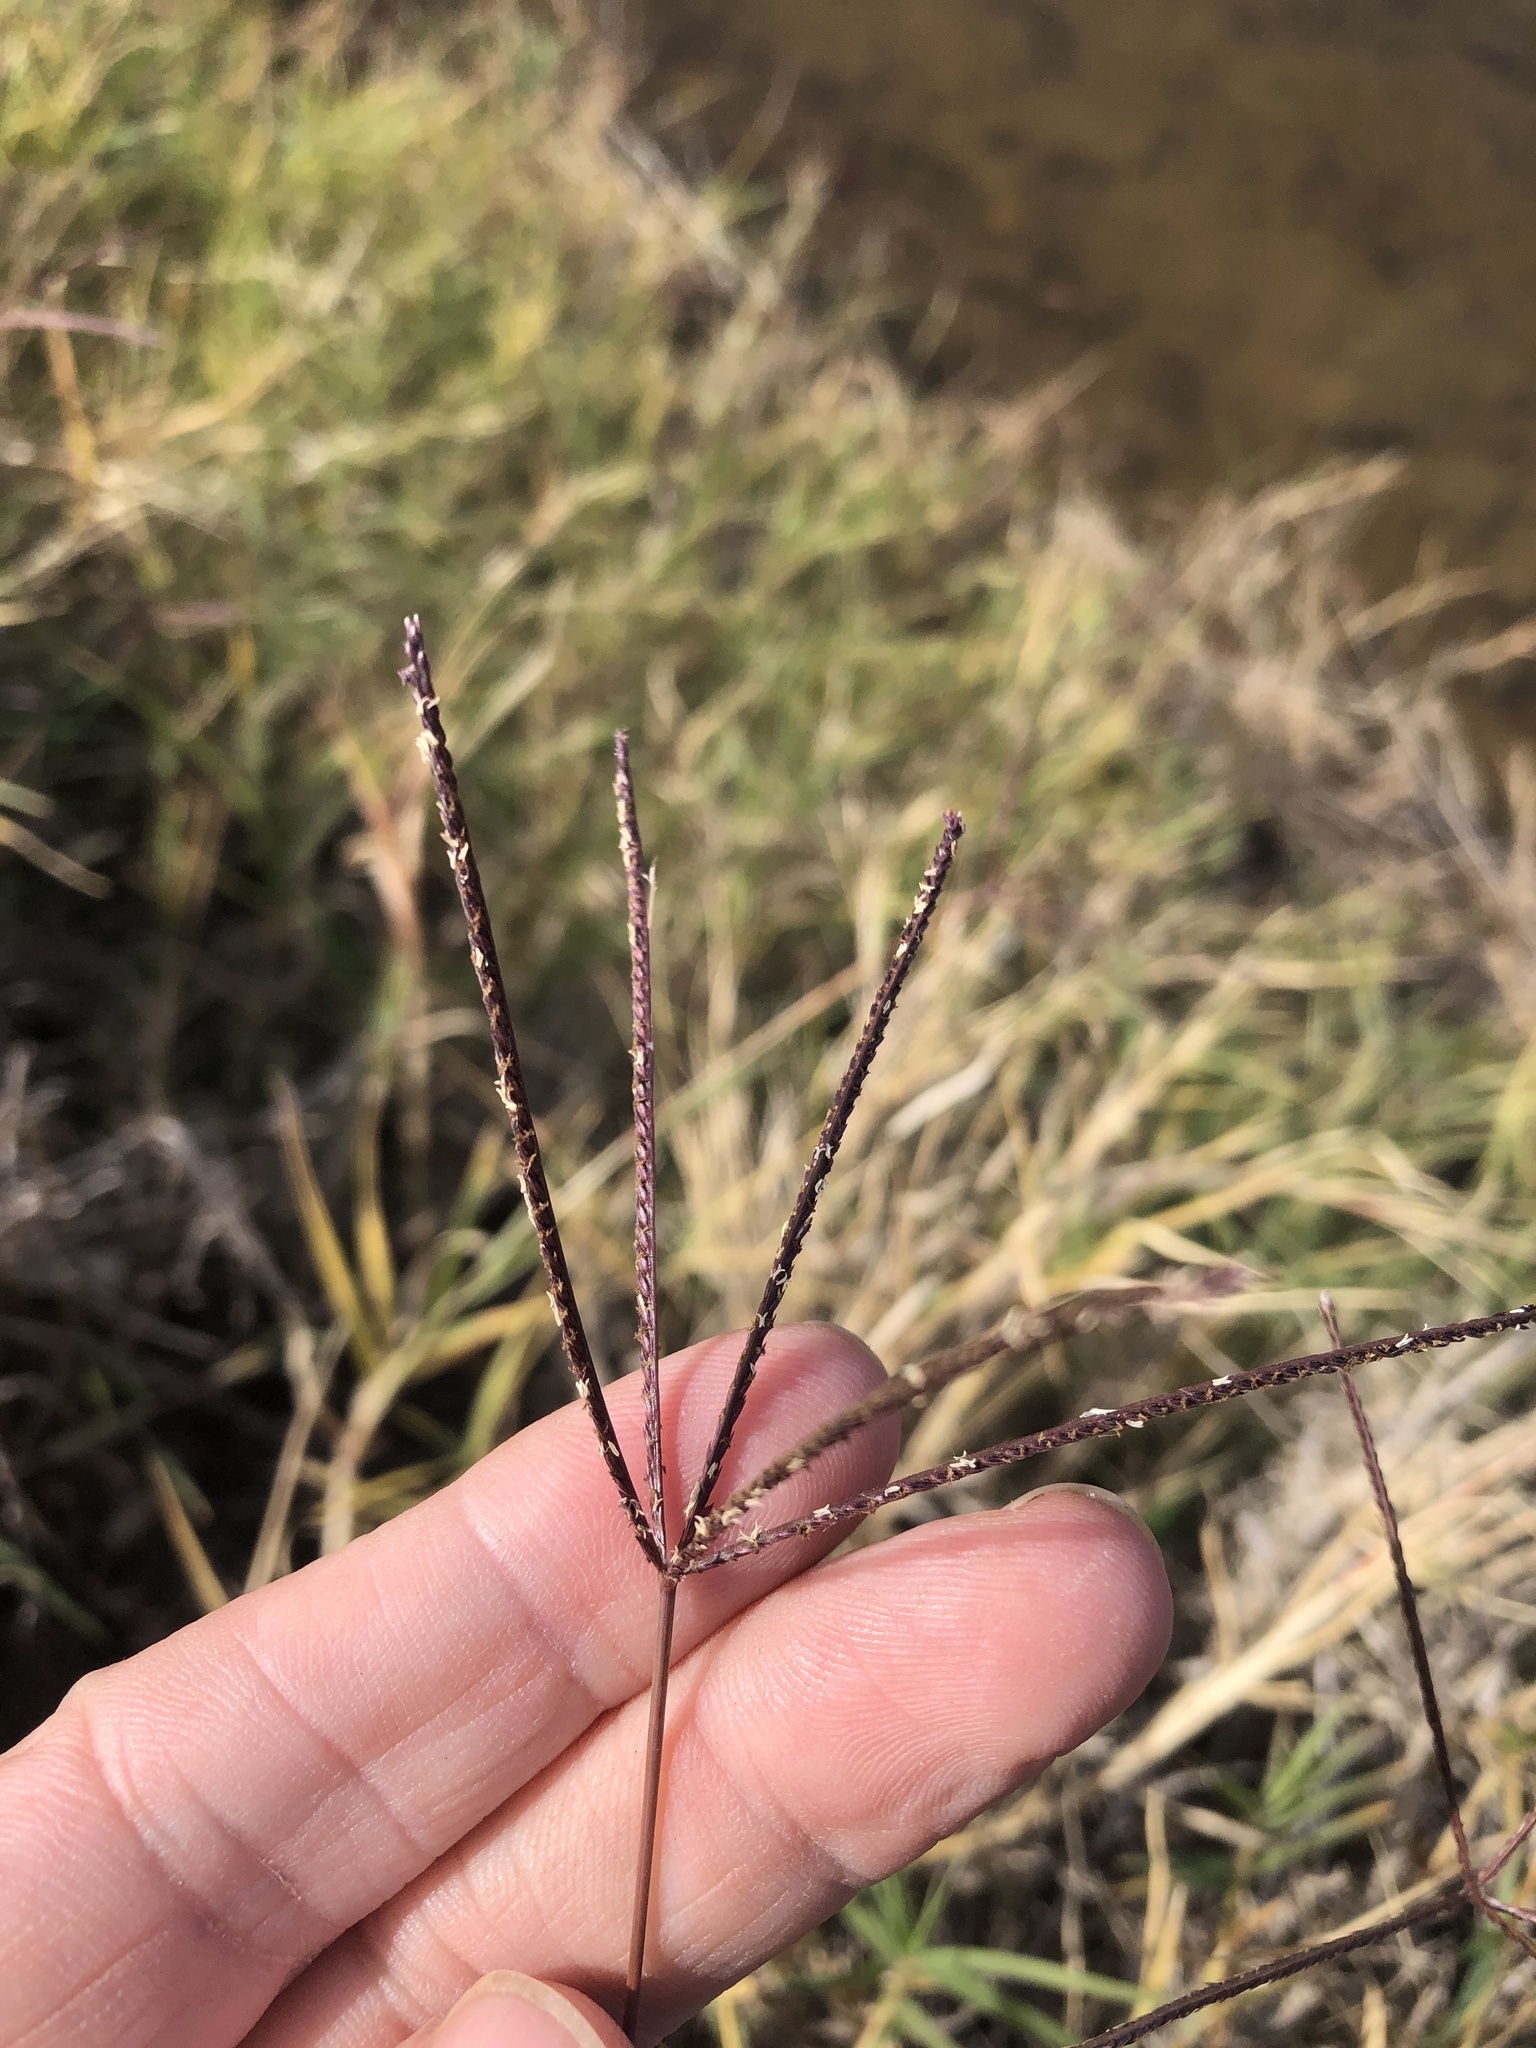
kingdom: Plantae
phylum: Tracheophyta
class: Liliopsida
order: Poales
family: Poaceae
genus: Cynodon
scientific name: Cynodon dactylon
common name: Bermuda grass
